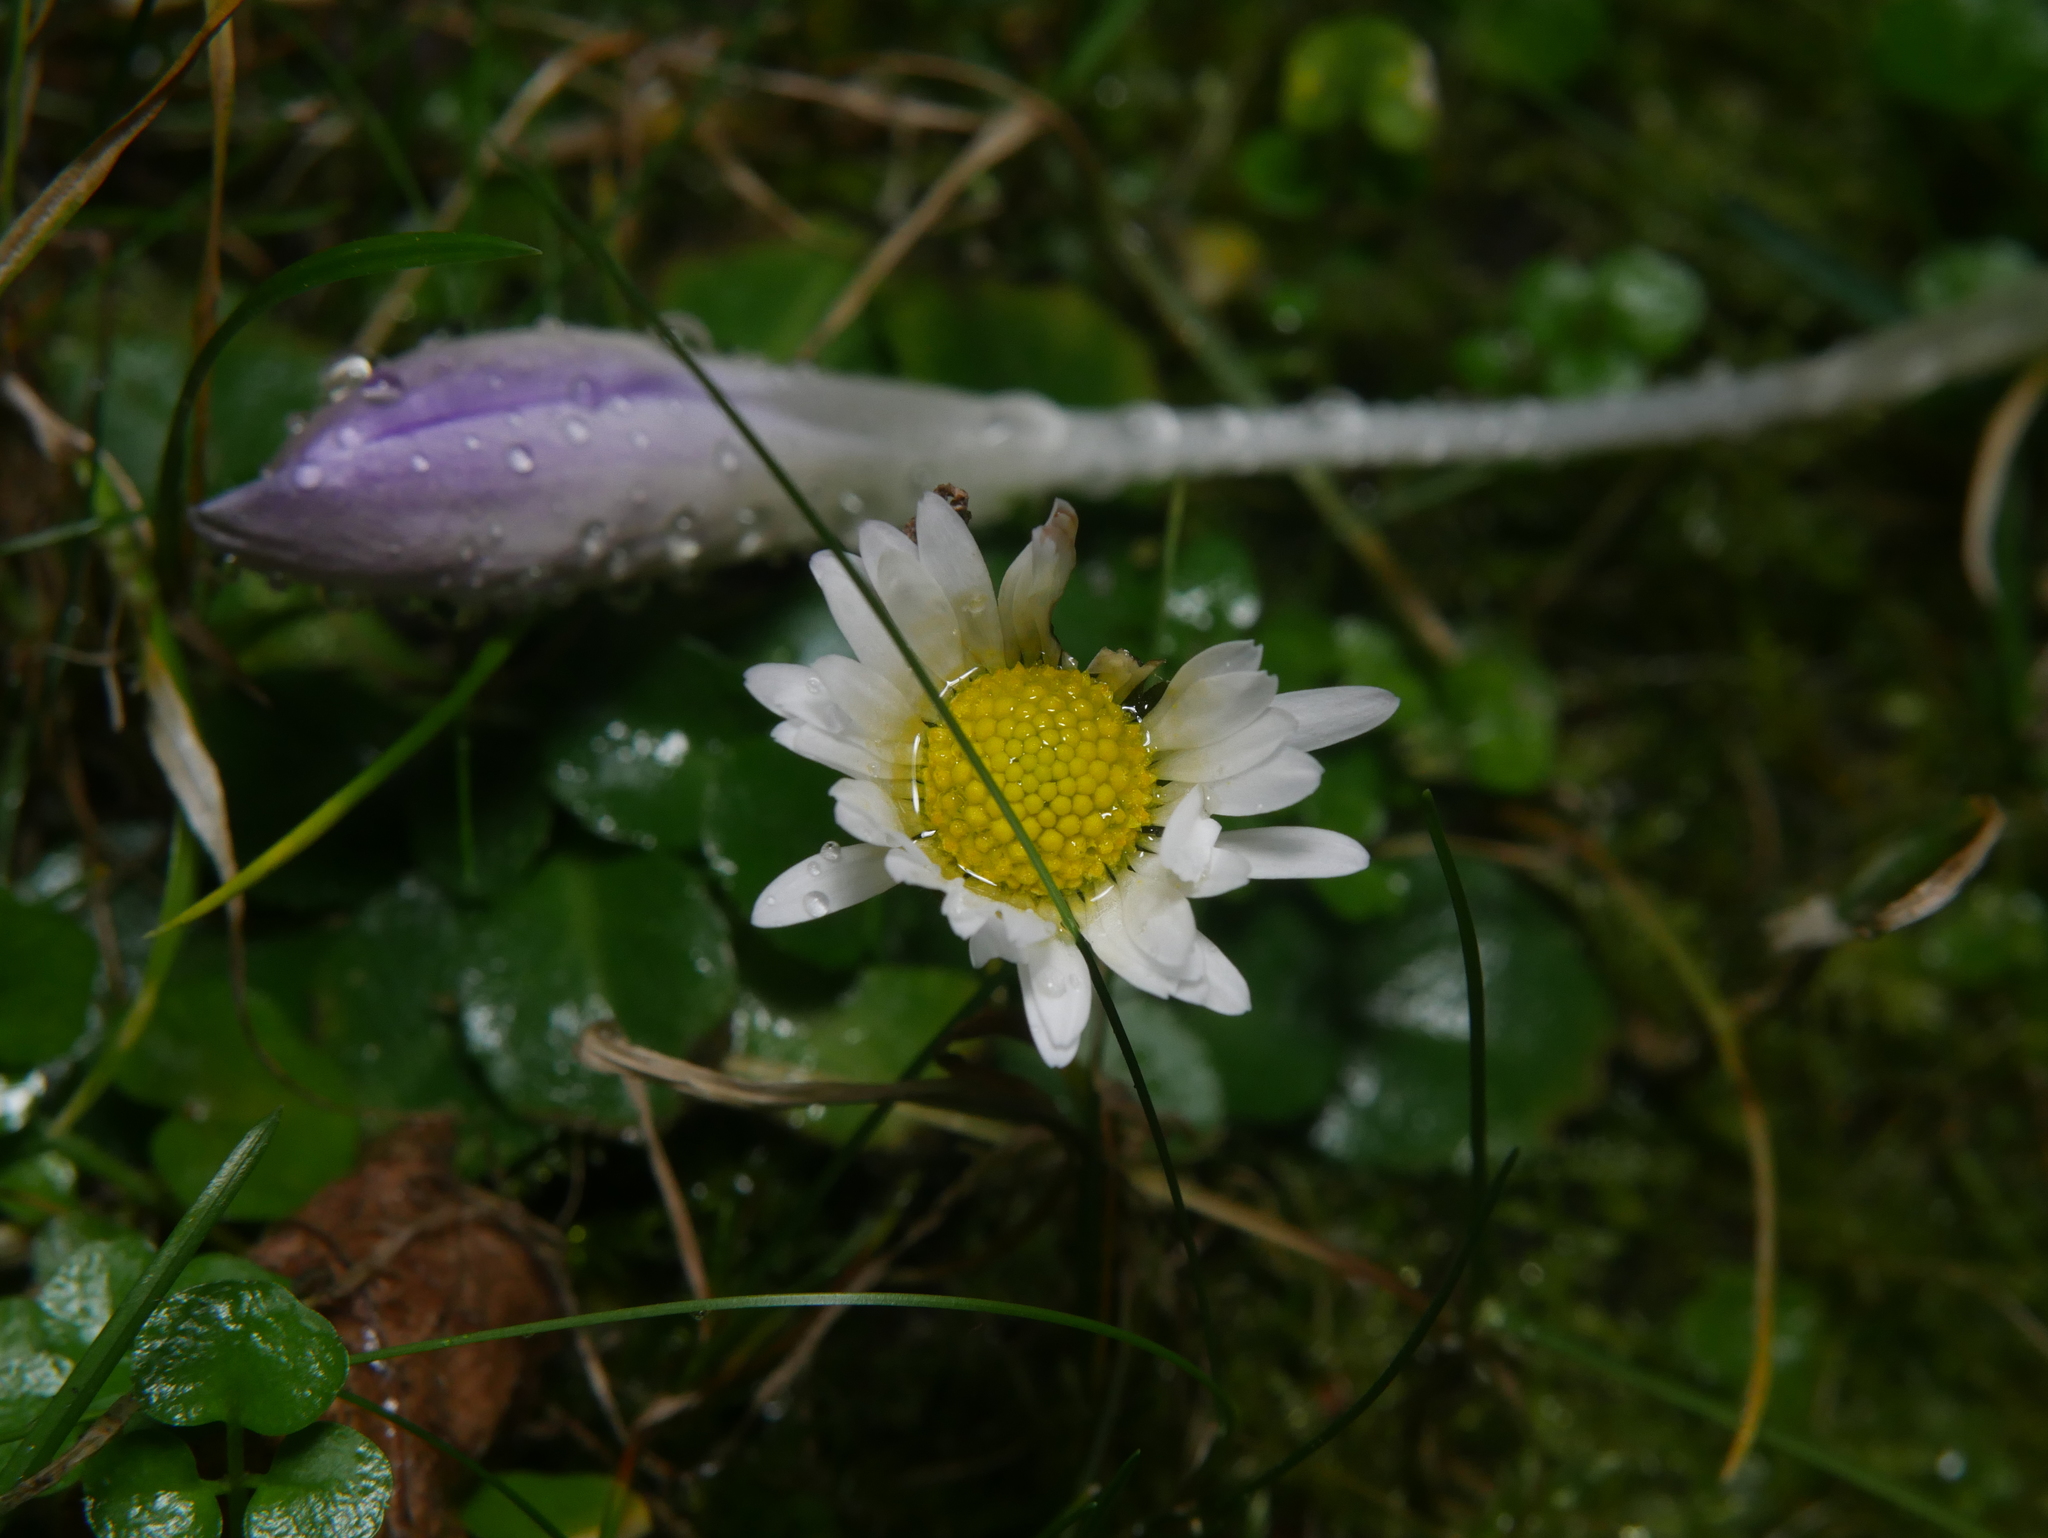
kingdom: Plantae
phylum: Tracheophyta
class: Magnoliopsida
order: Asterales
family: Asteraceae
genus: Bellis
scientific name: Bellis perennis
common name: Lawndaisy
